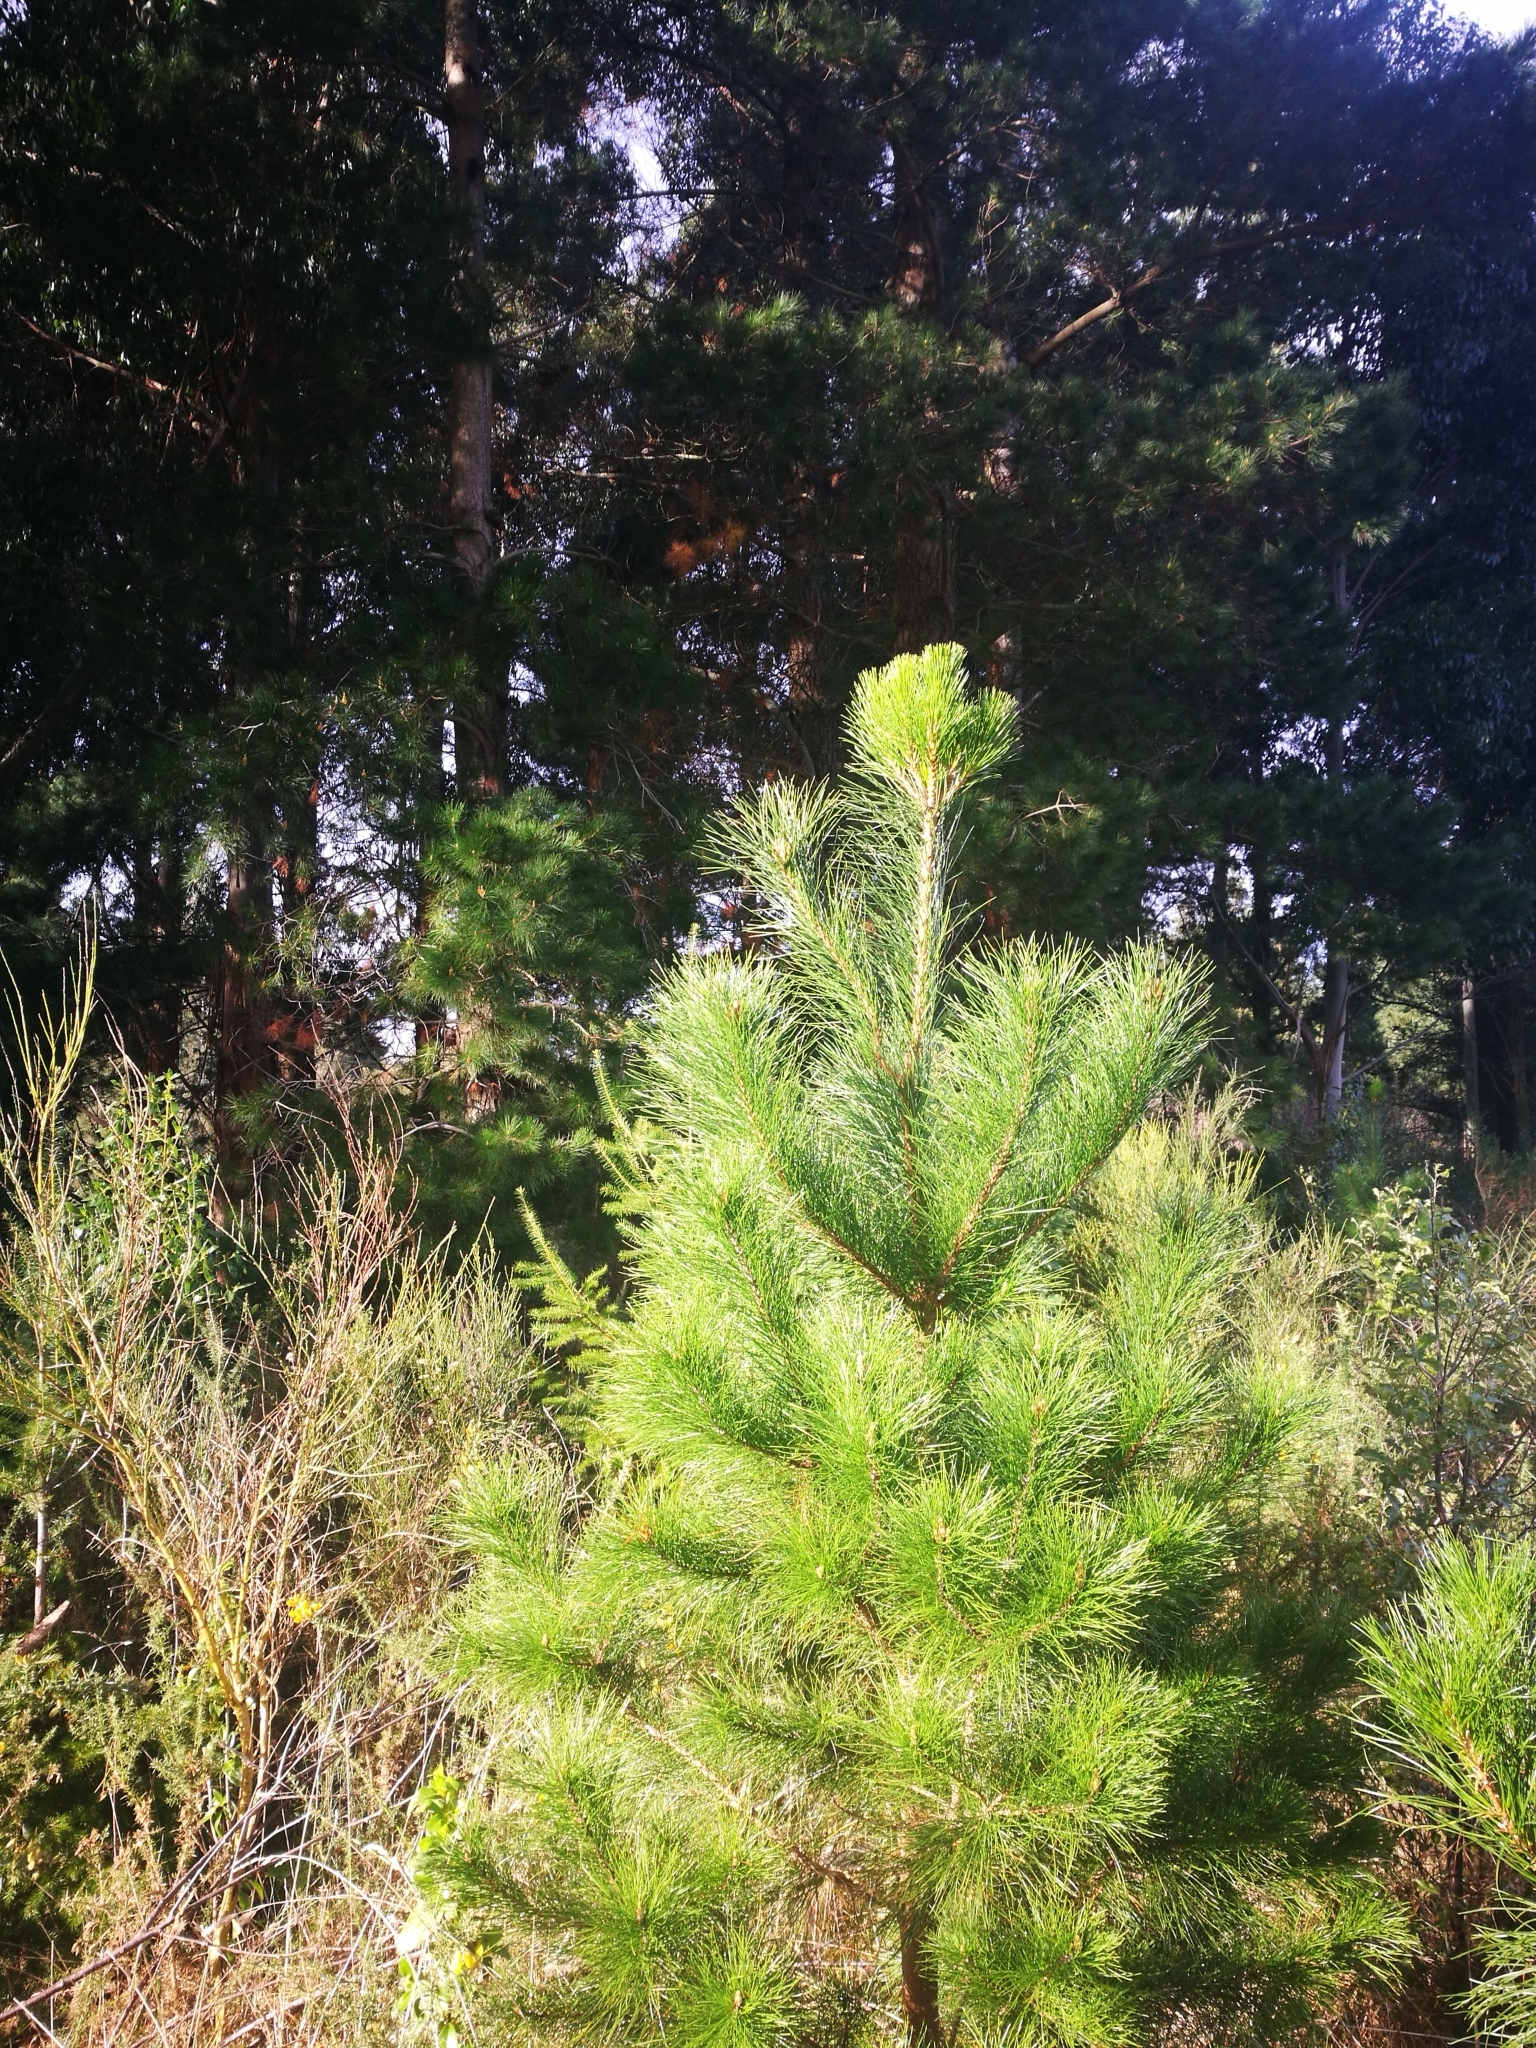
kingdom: Plantae
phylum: Tracheophyta
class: Pinopsida
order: Pinales
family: Pinaceae
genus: Pinus
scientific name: Pinus radiata
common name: Monterey pine
